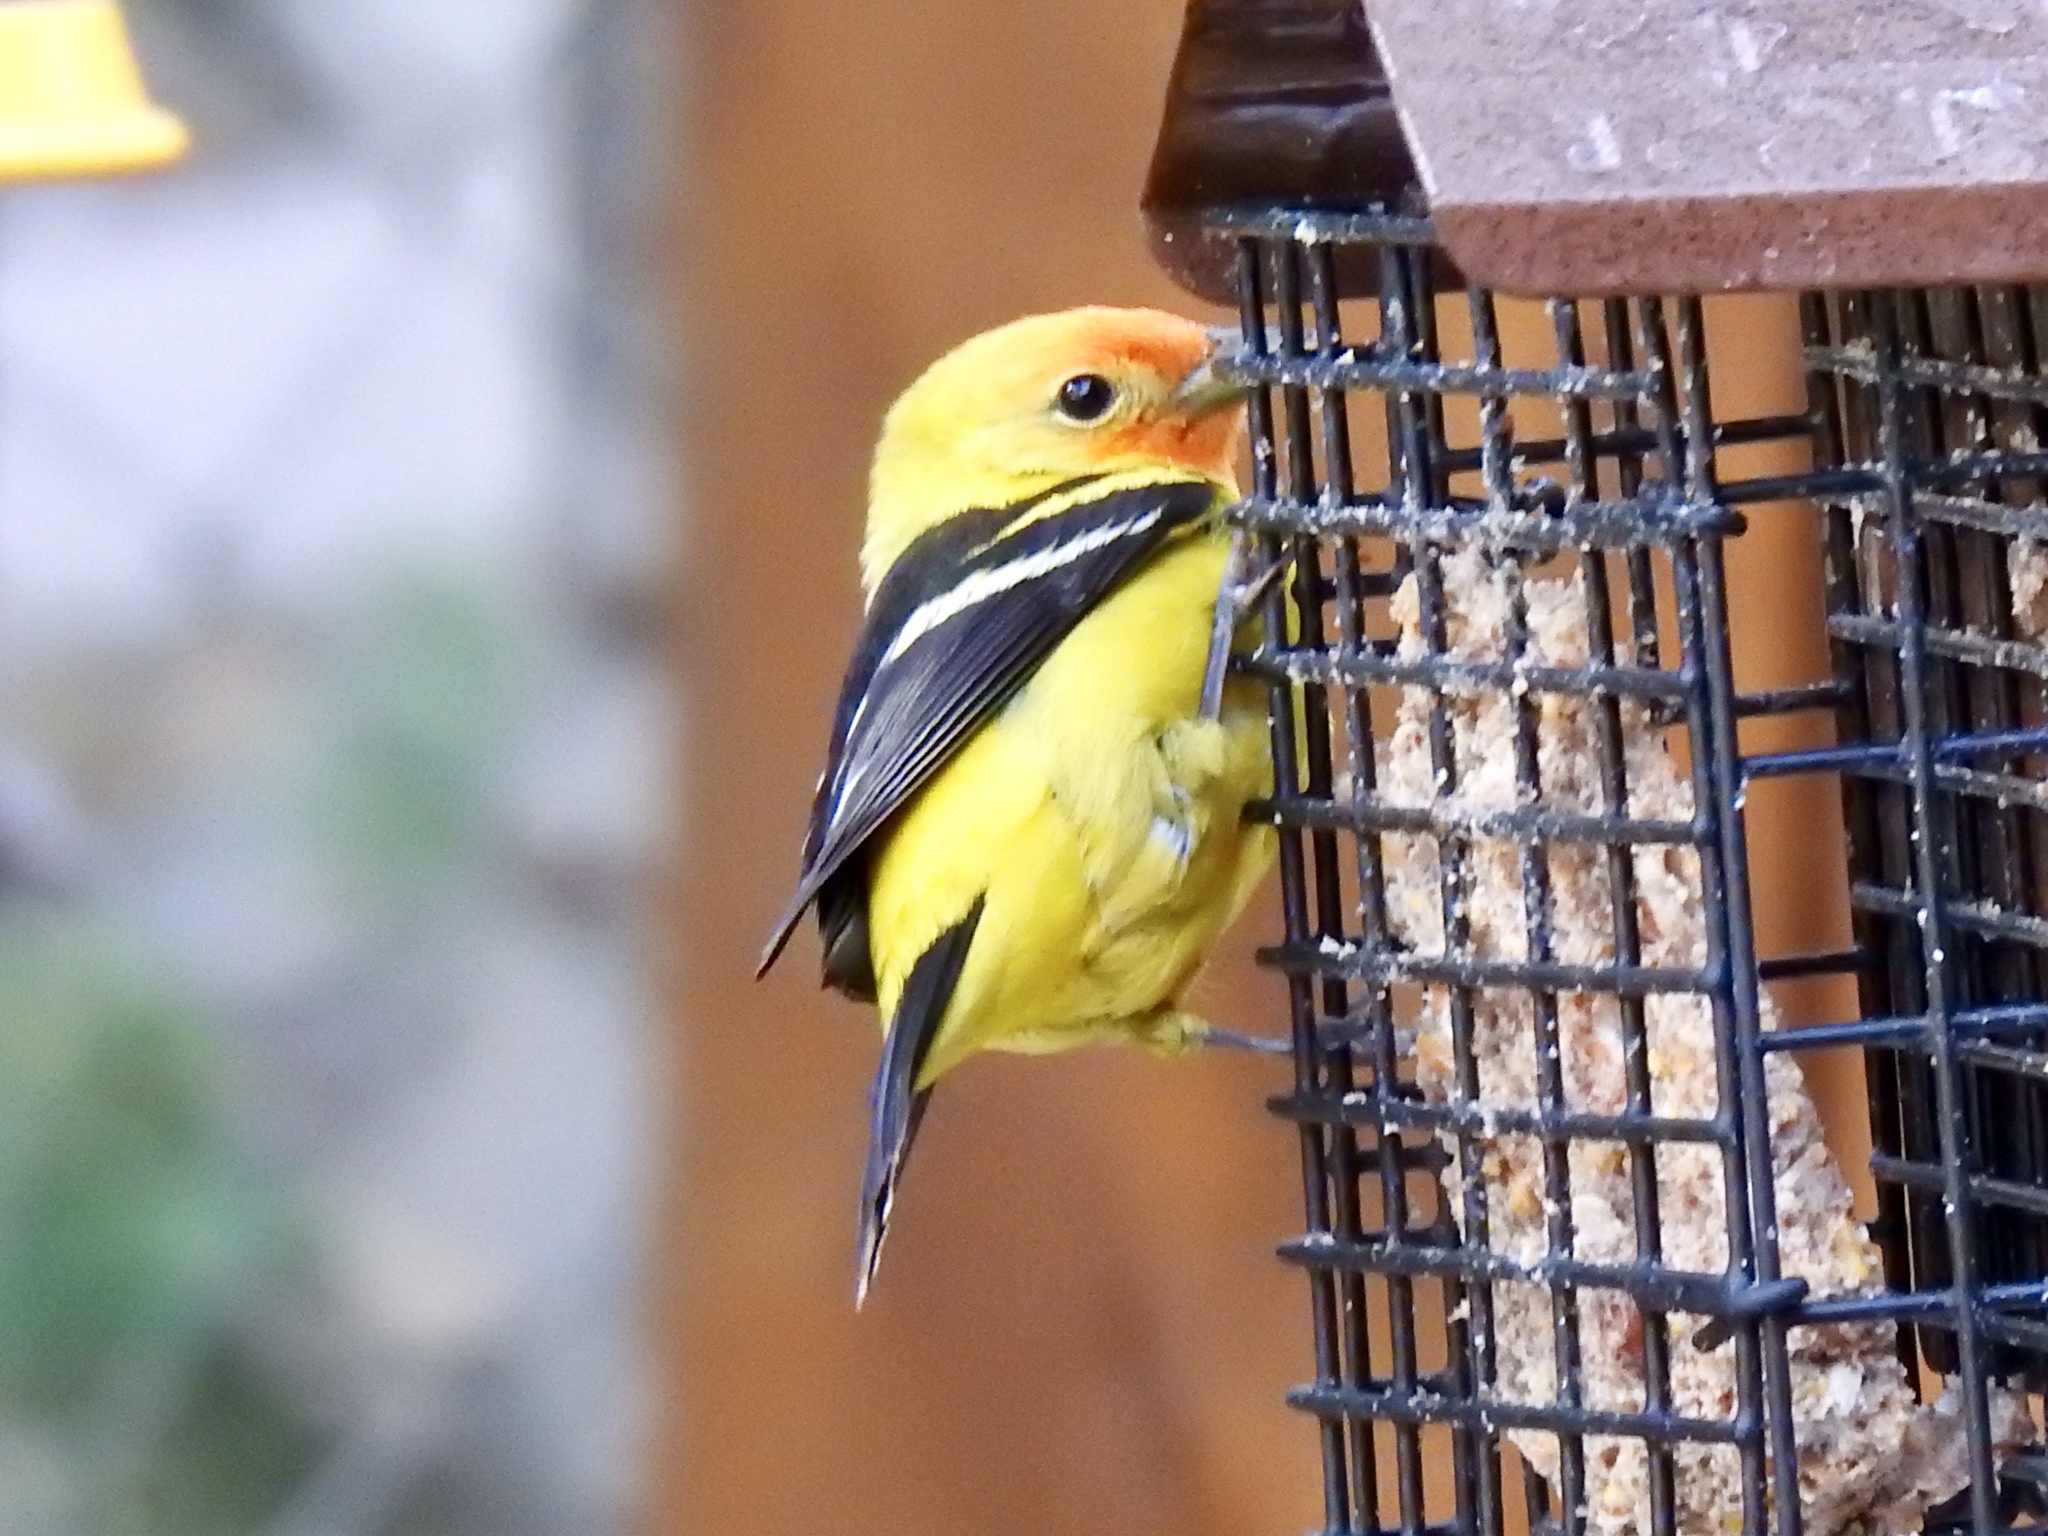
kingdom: Animalia
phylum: Chordata
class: Aves
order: Passeriformes
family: Cardinalidae
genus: Piranga
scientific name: Piranga ludoviciana
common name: Western tanager
